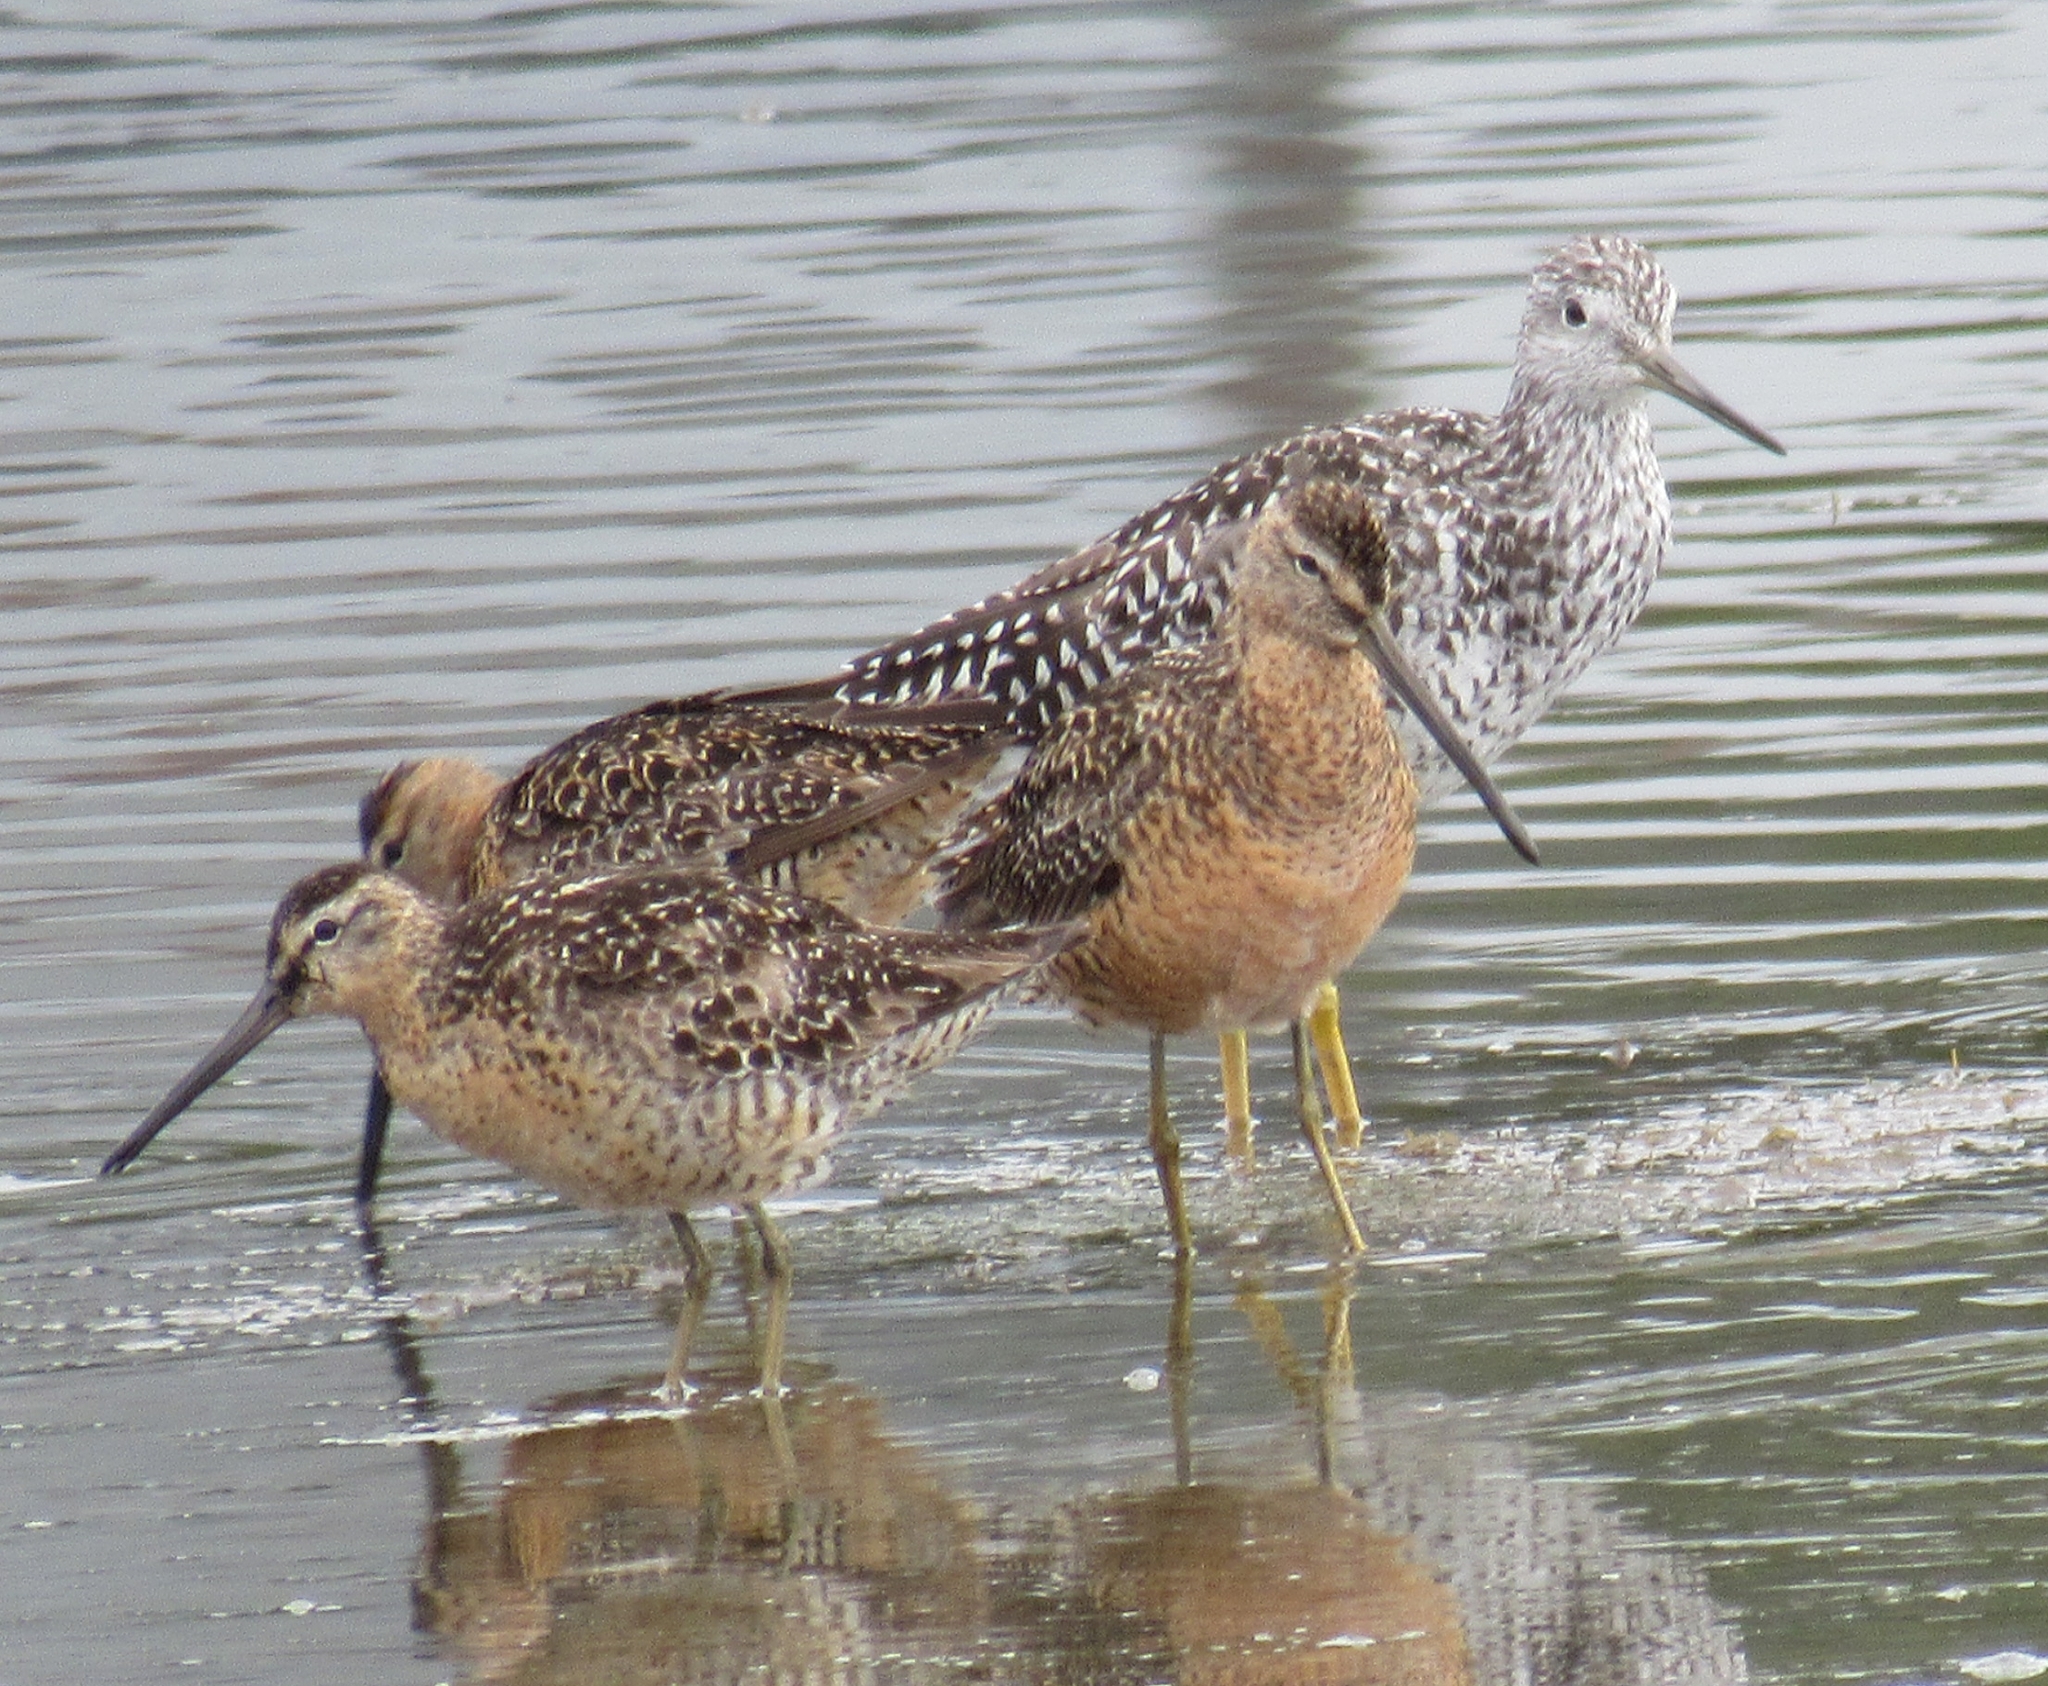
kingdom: Animalia
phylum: Chordata
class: Aves
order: Charadriiformes
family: Scolopacidae
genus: Limnodromus
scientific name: Limnodromus scolopaceus
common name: Long-billed dowitcher
